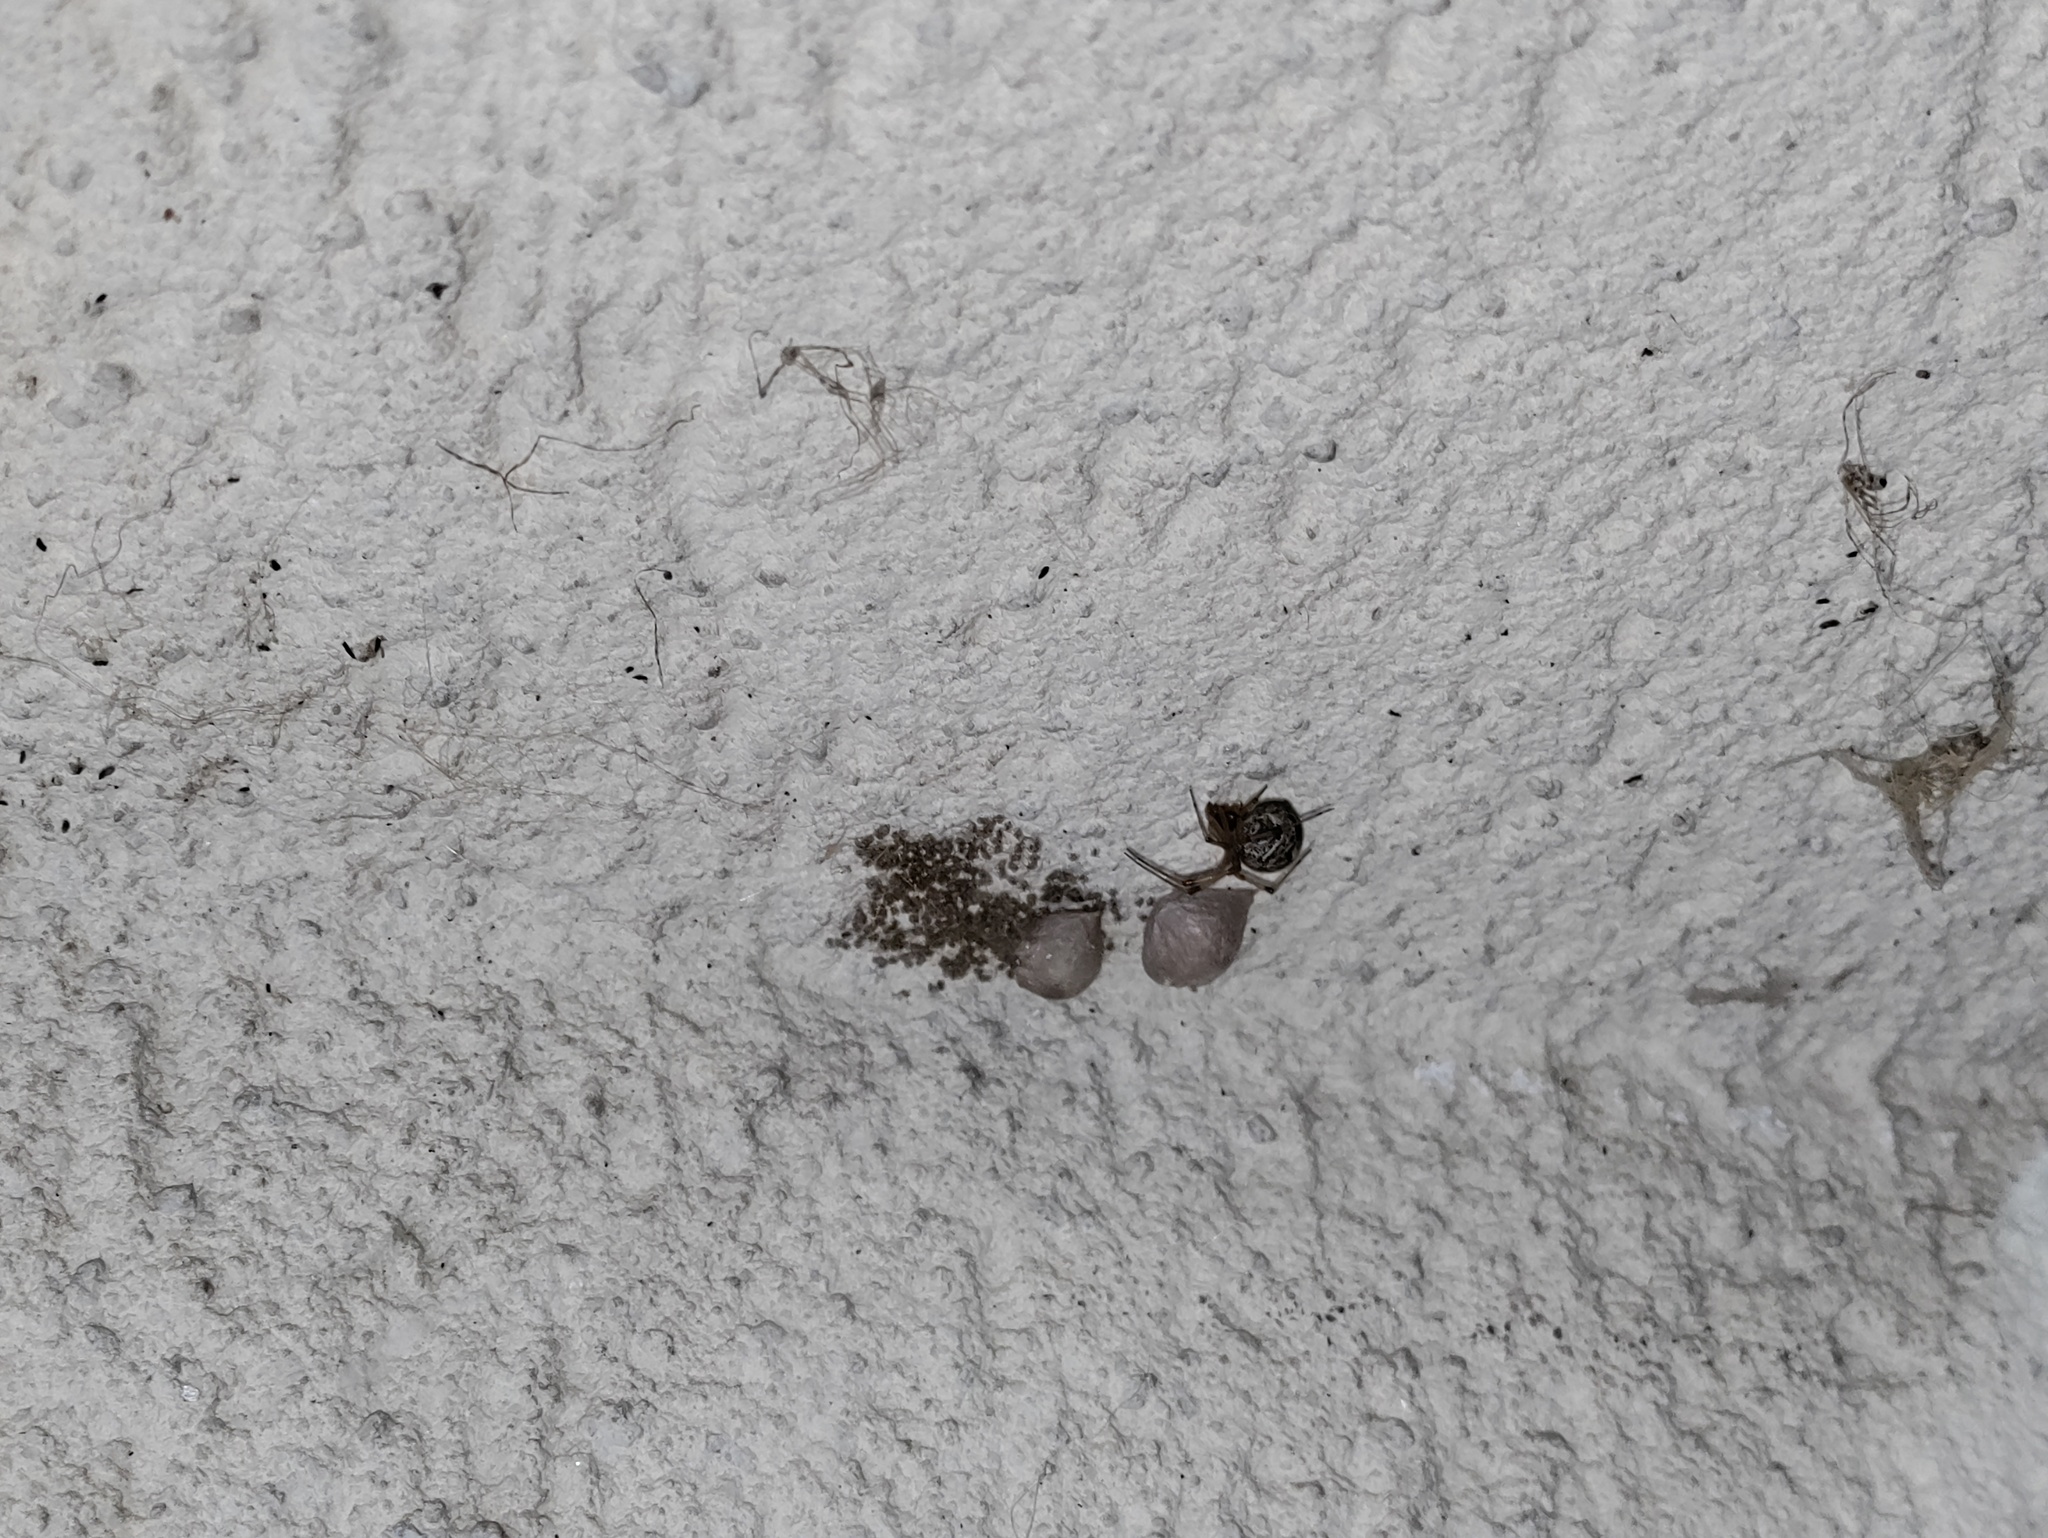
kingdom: Animalia
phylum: Arthropoda
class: Arachnida
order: Araneae
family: Theridiidae
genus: Parasteatoda
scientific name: Parasteatoda tepidariorum
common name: Common house spider
